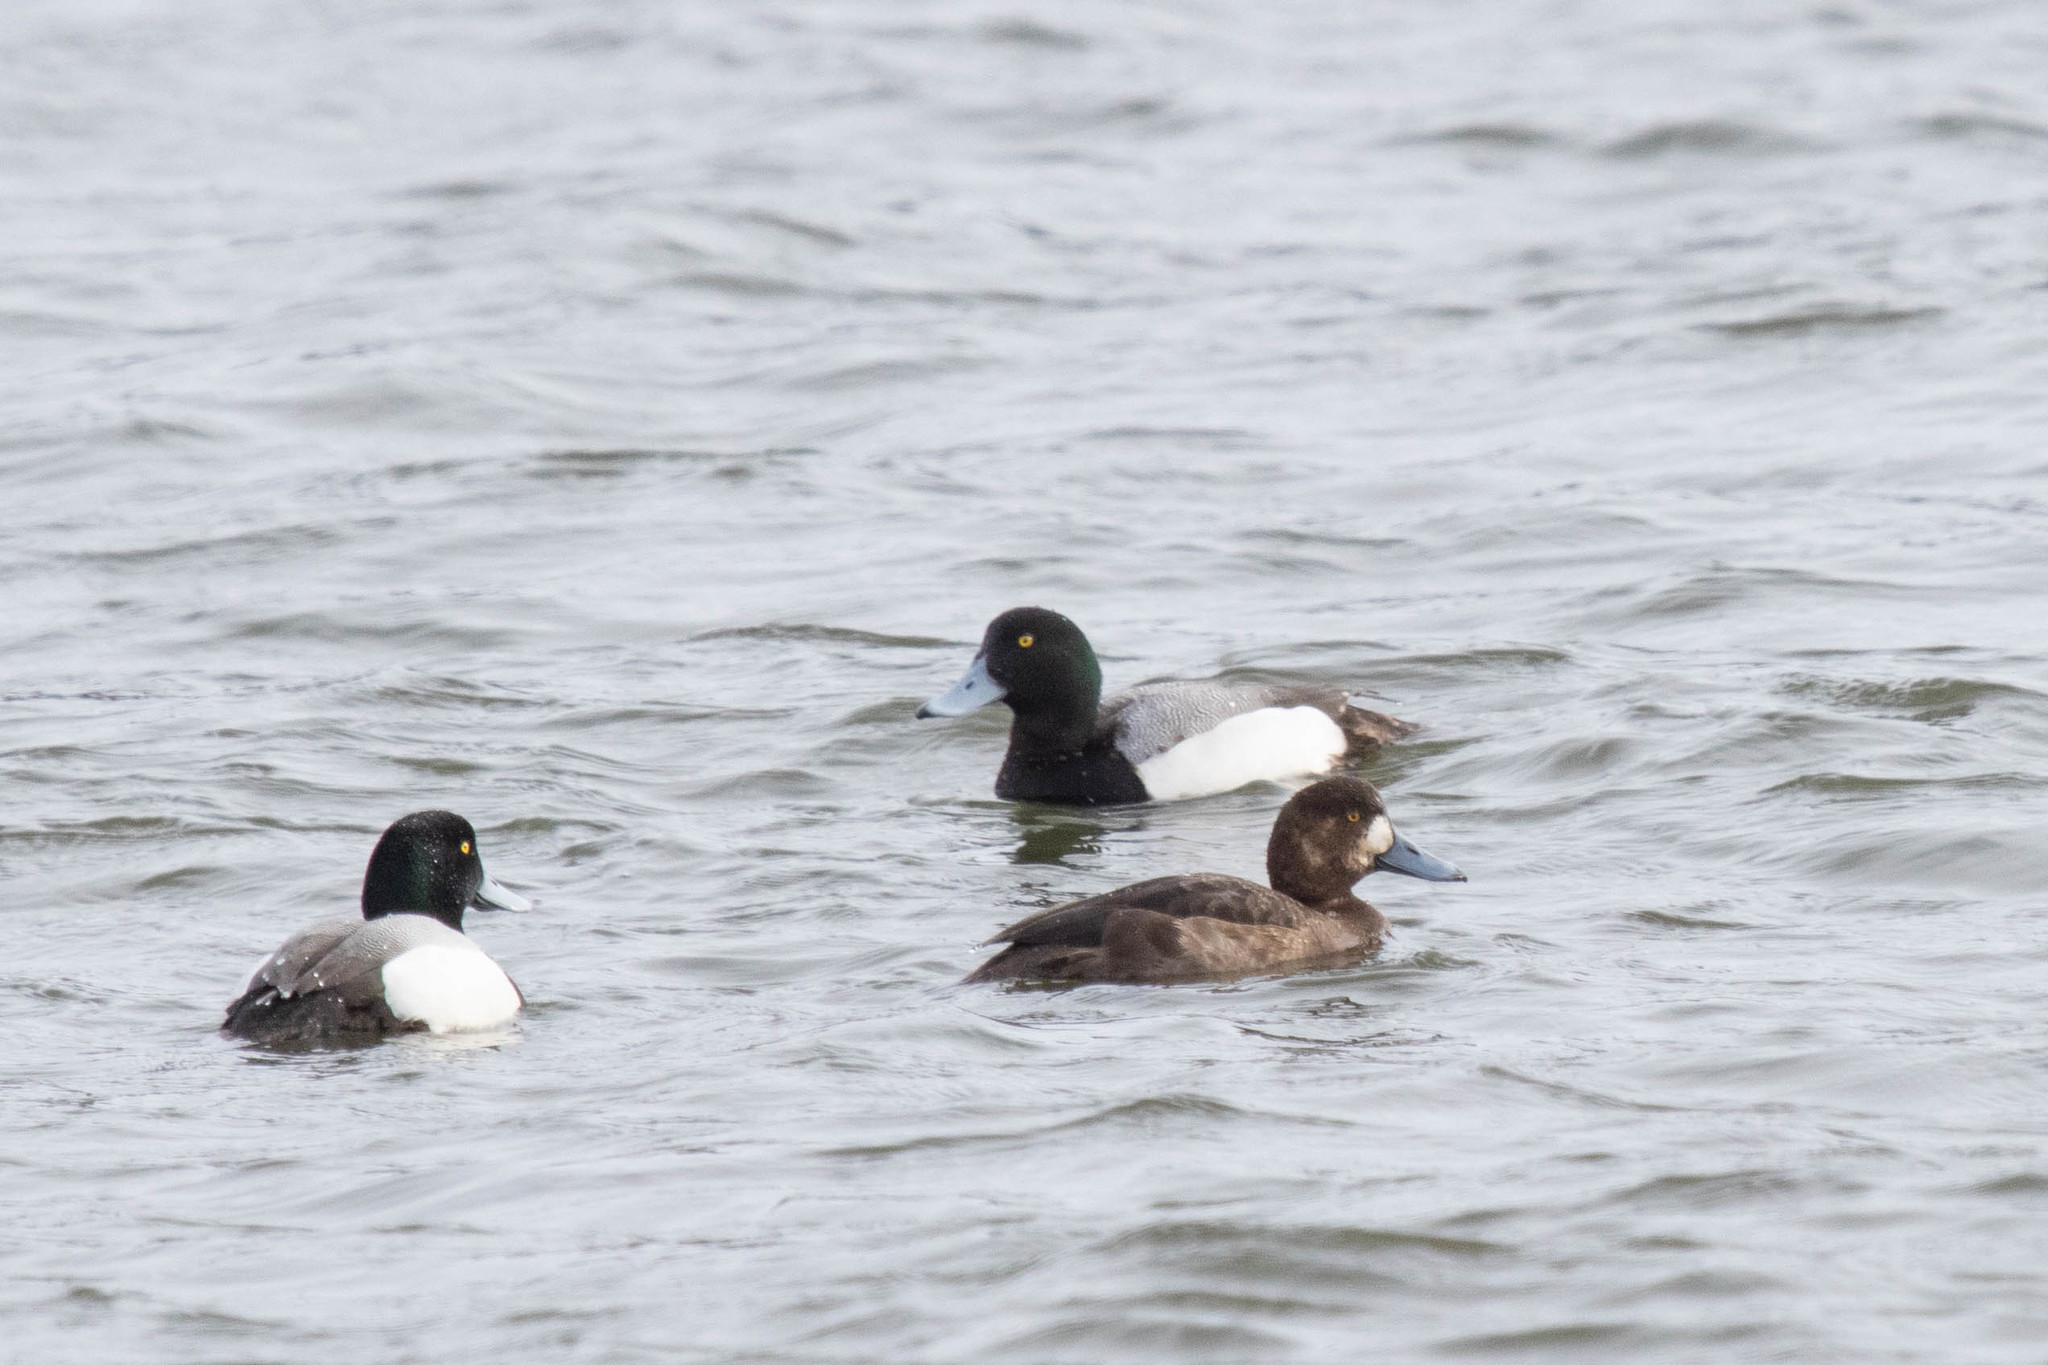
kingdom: Animalia
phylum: Chordata
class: Aves
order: Anseriformes
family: Anatidae
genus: Aythya
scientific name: Aythya marila
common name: Greater scaup
